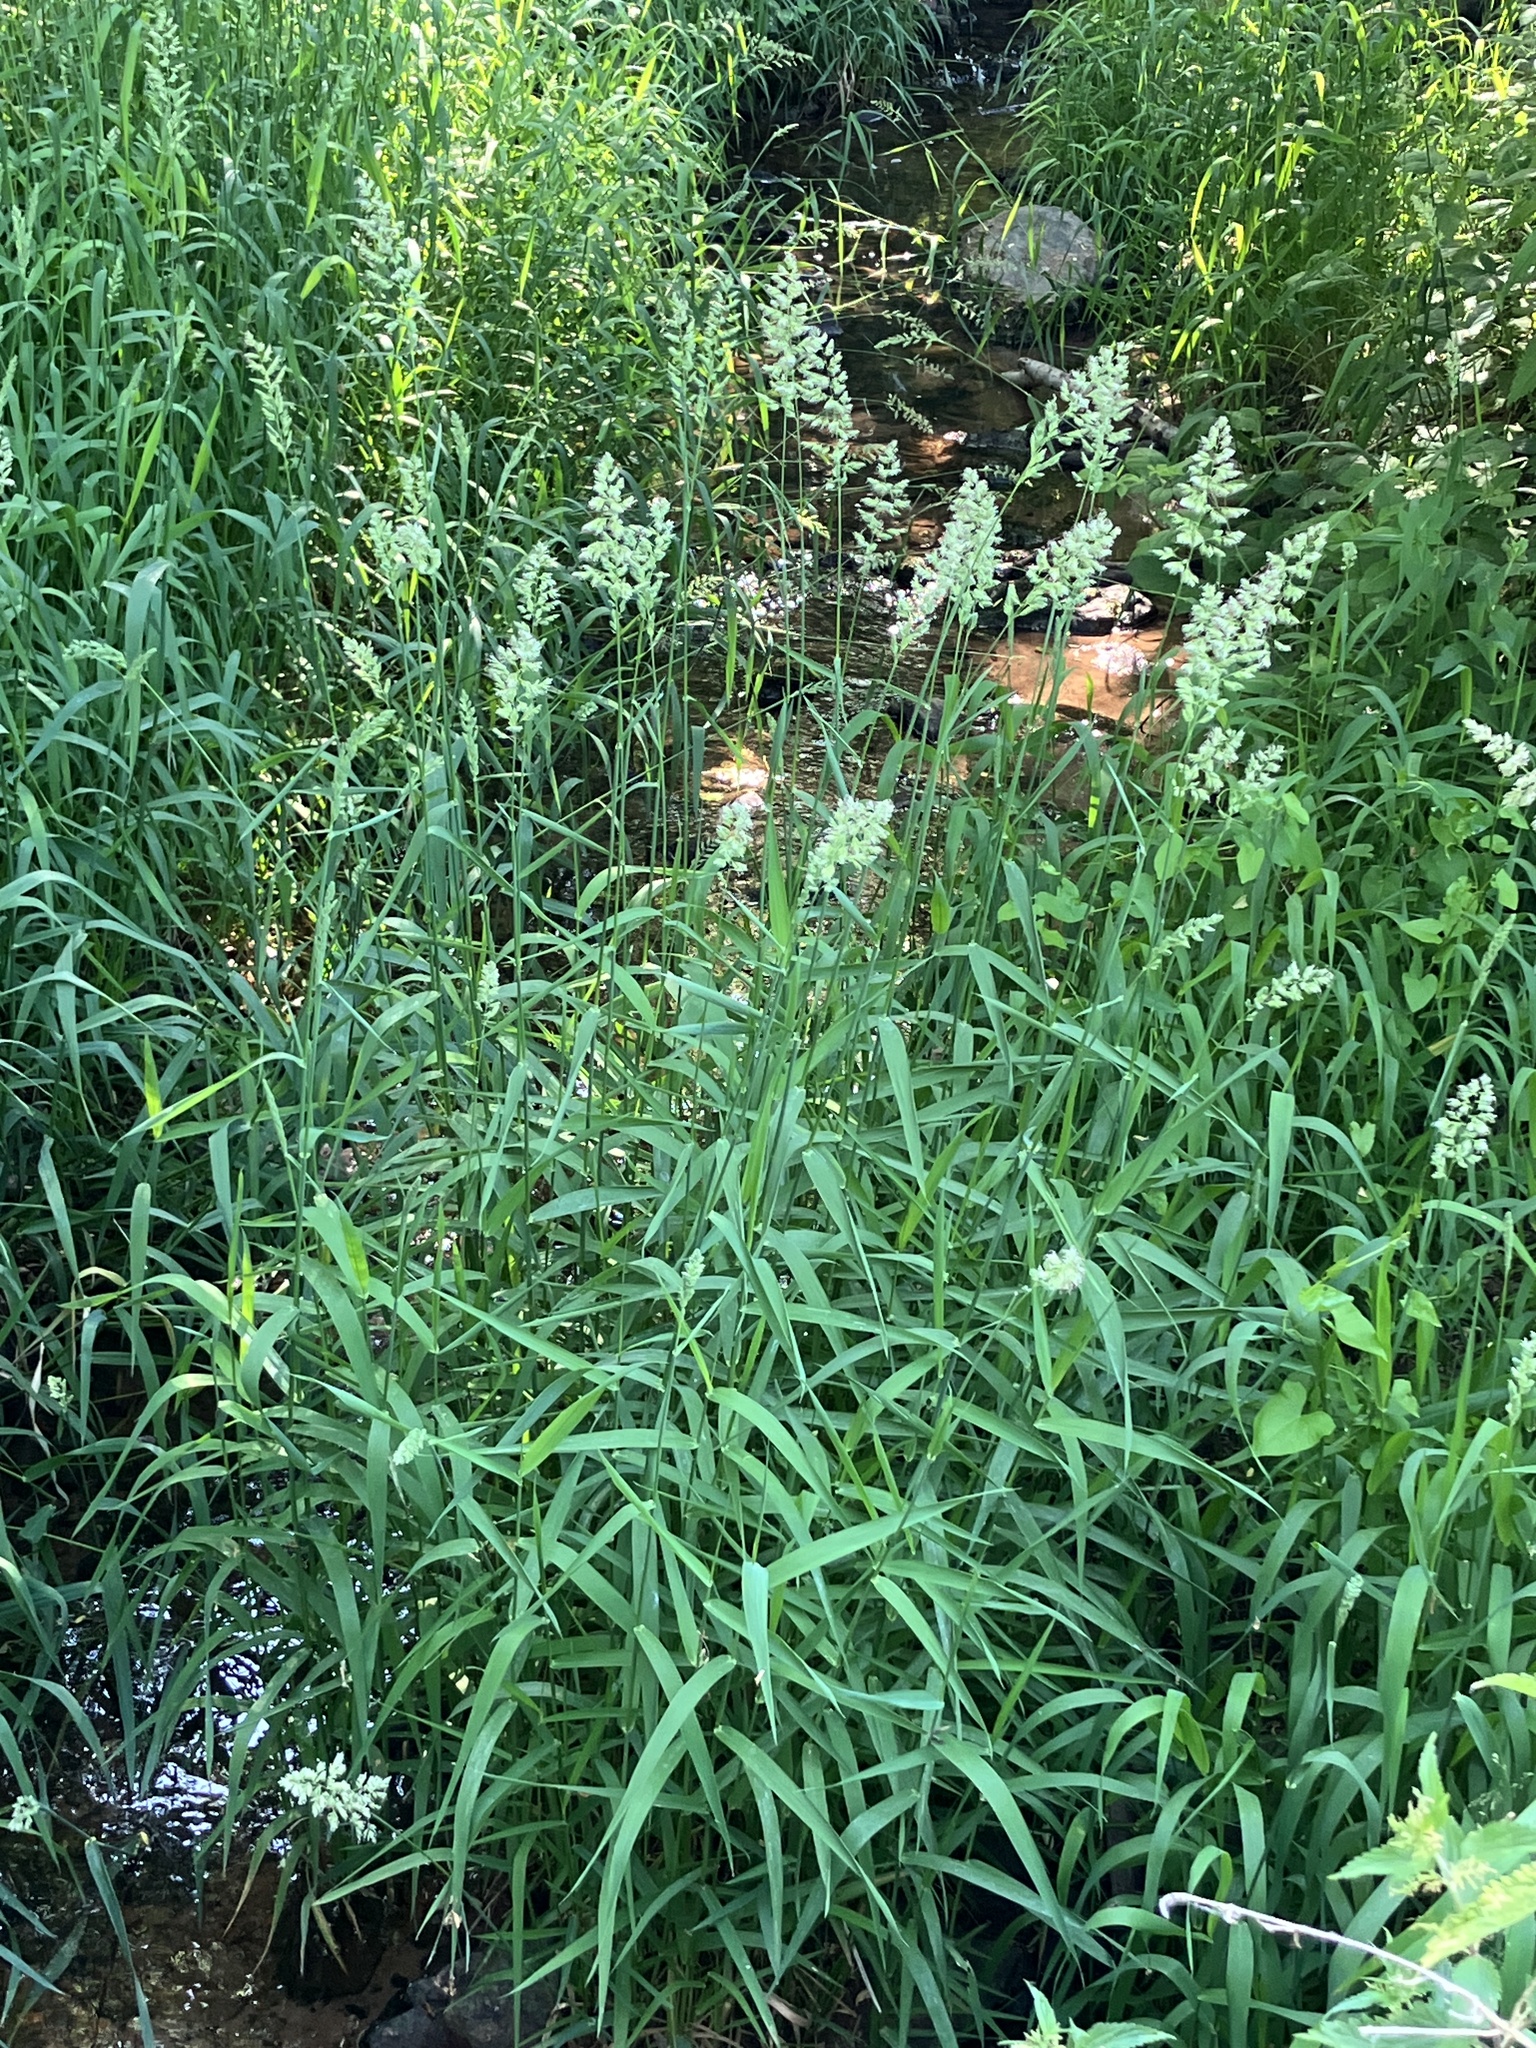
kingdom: Plantae
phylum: Tracheophyta
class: Liliopsida
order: Poales
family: Poaceae
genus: Phalaris
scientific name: Phalaris arundinacea
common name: Reed canary-grass
